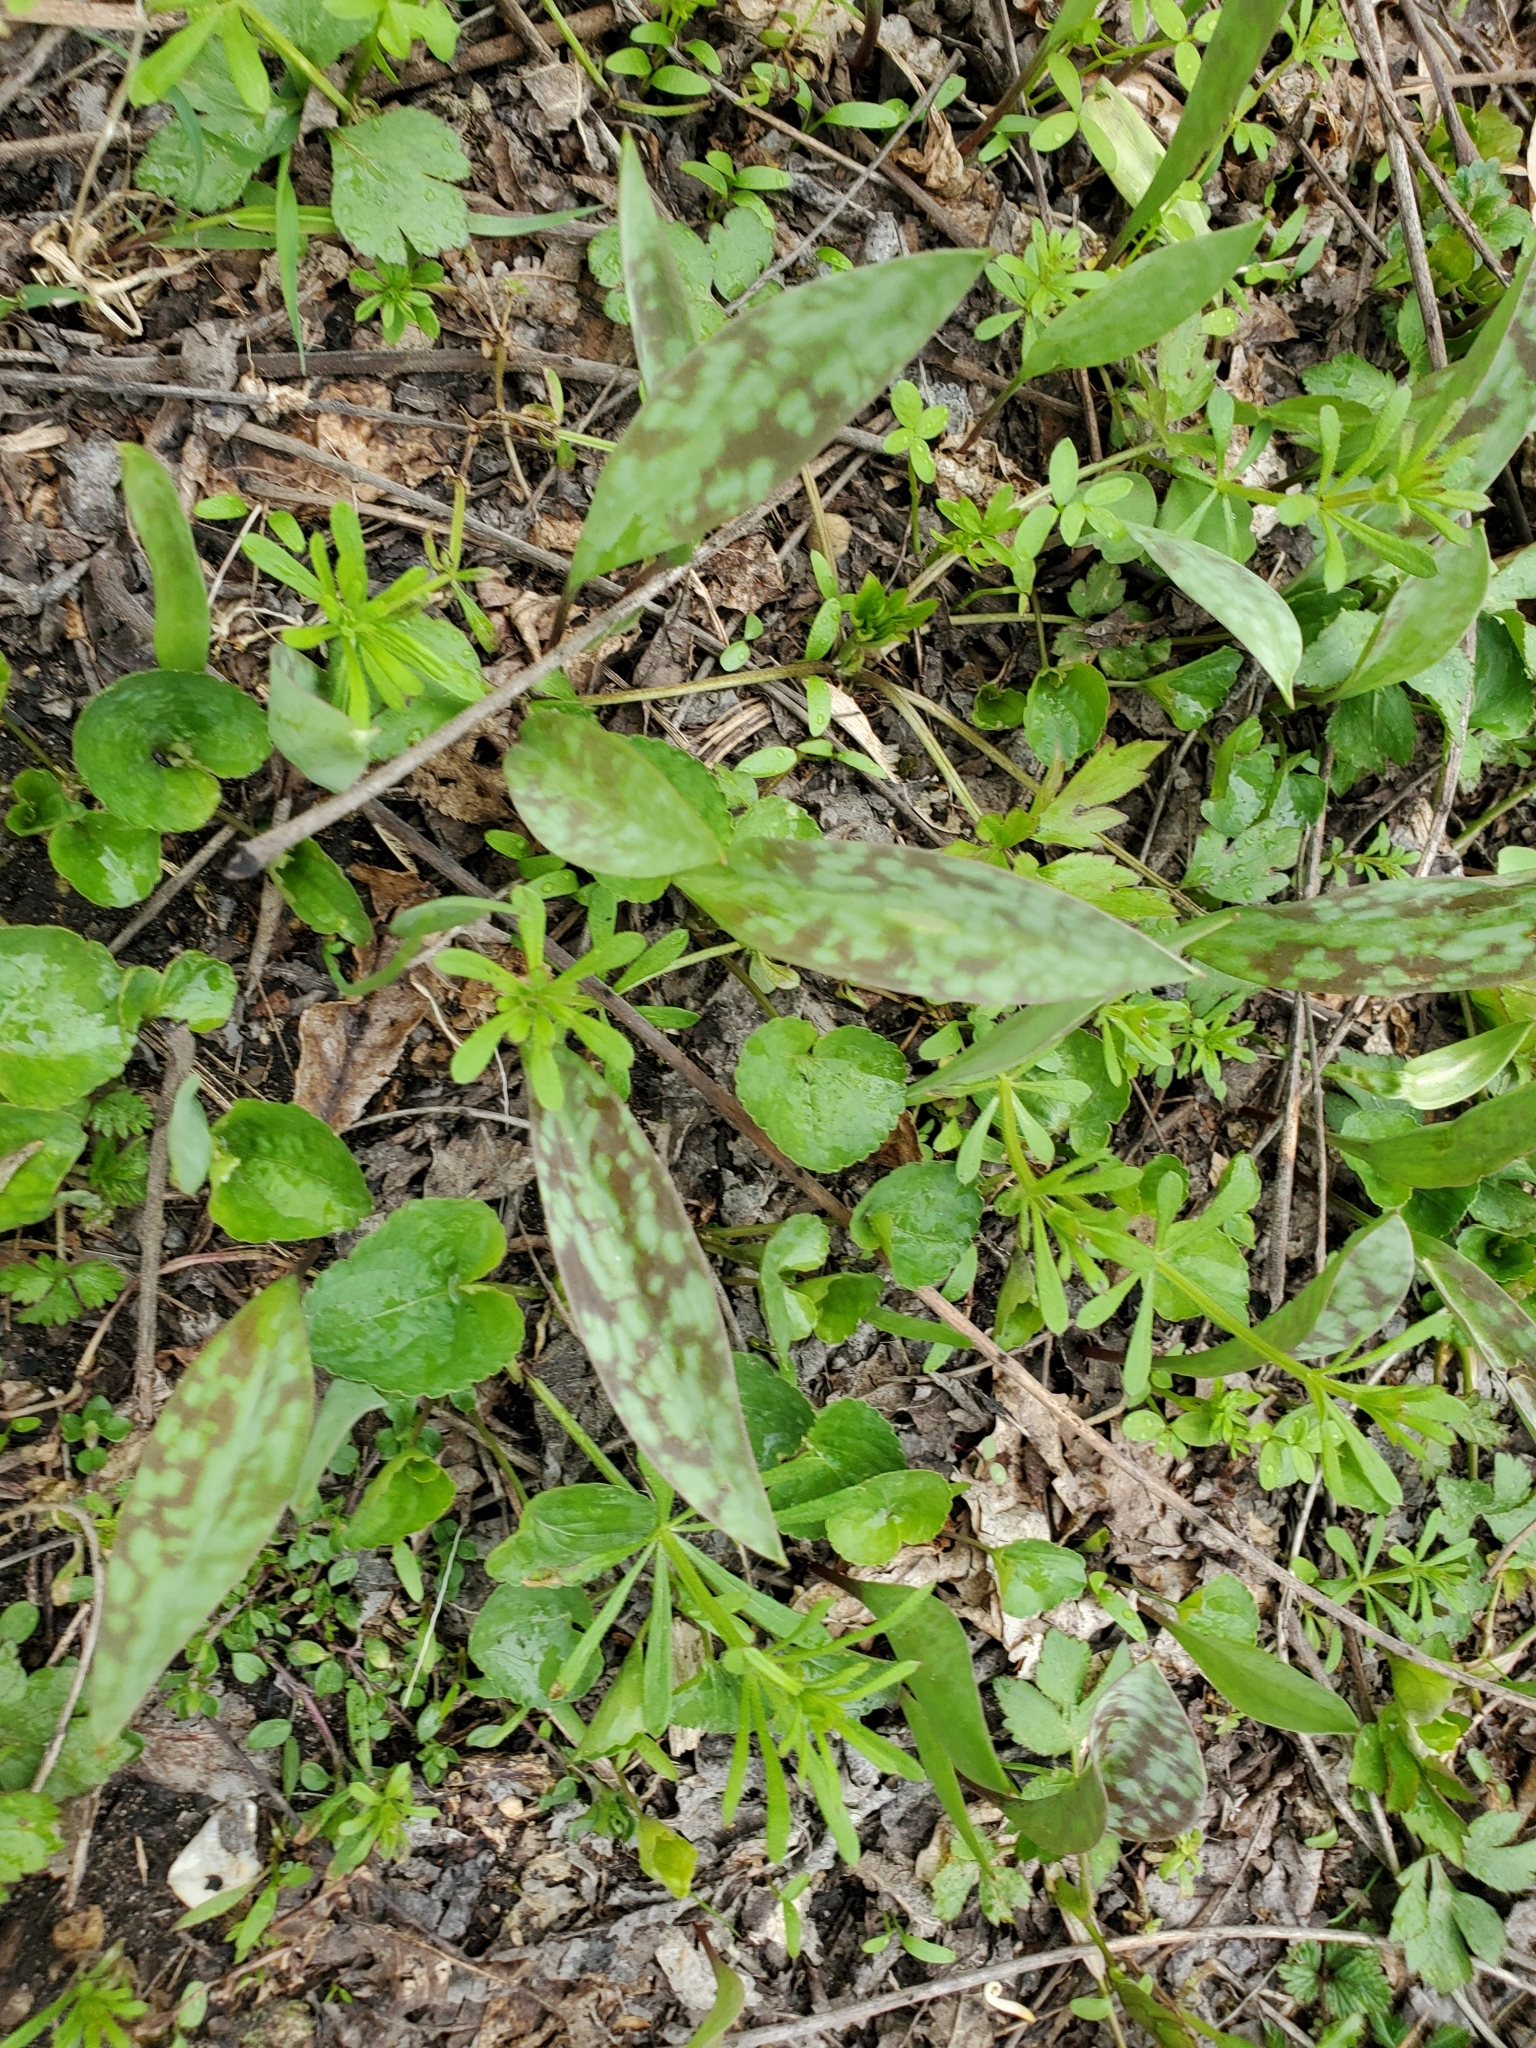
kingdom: Plantae
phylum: Tracheophyta
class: Liliopsida
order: Liliales
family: Liliaceae
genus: Erythronium
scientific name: Erythronium albidum
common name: White trout-lily
